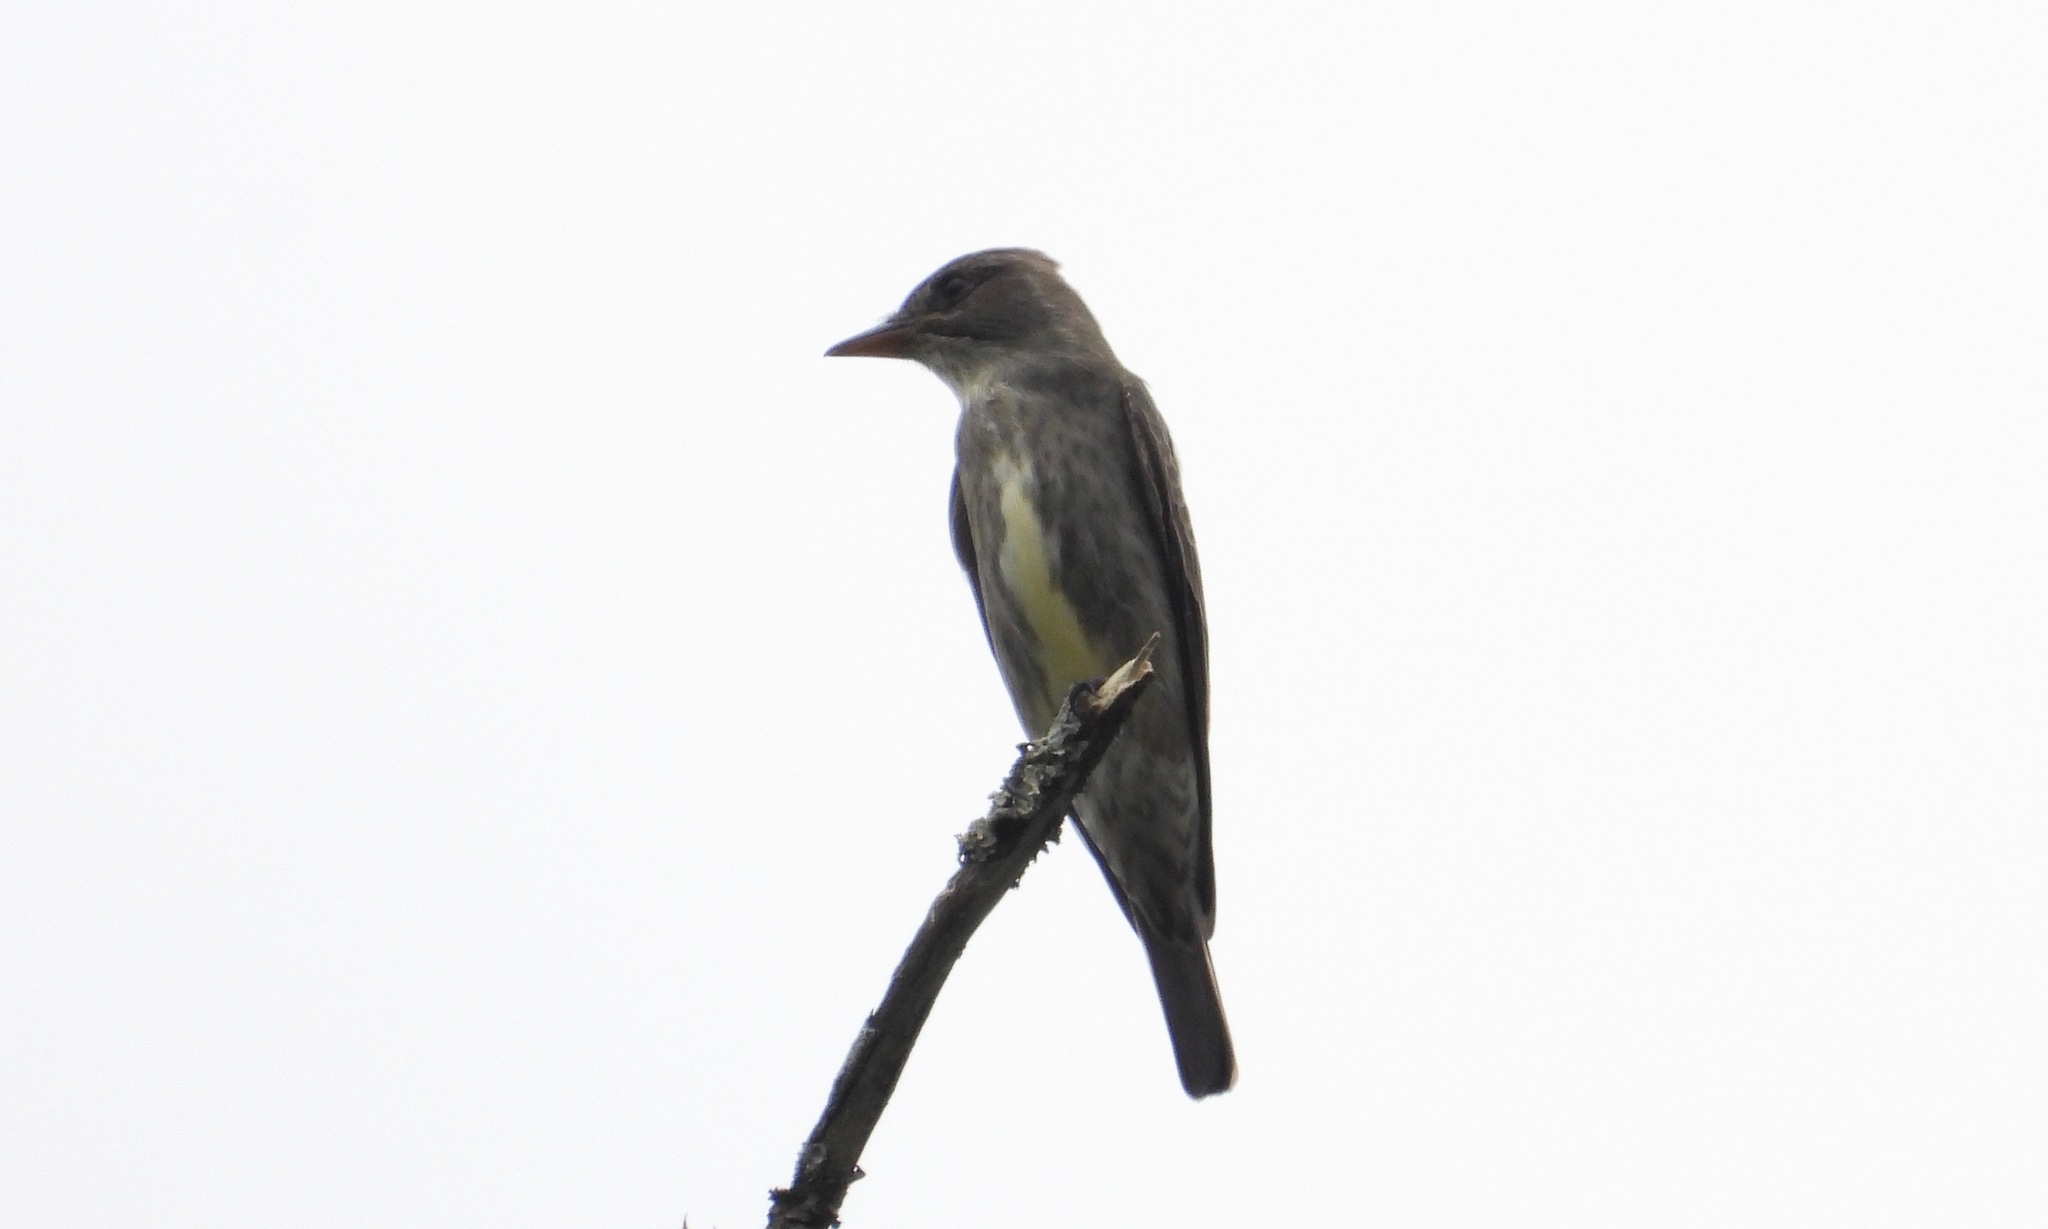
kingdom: Animalia
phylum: Chordata
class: Aves
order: Passeriformes
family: Tyrannidae
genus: Contopus
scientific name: Contopus cooperi
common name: Olive-sided flycatcher
